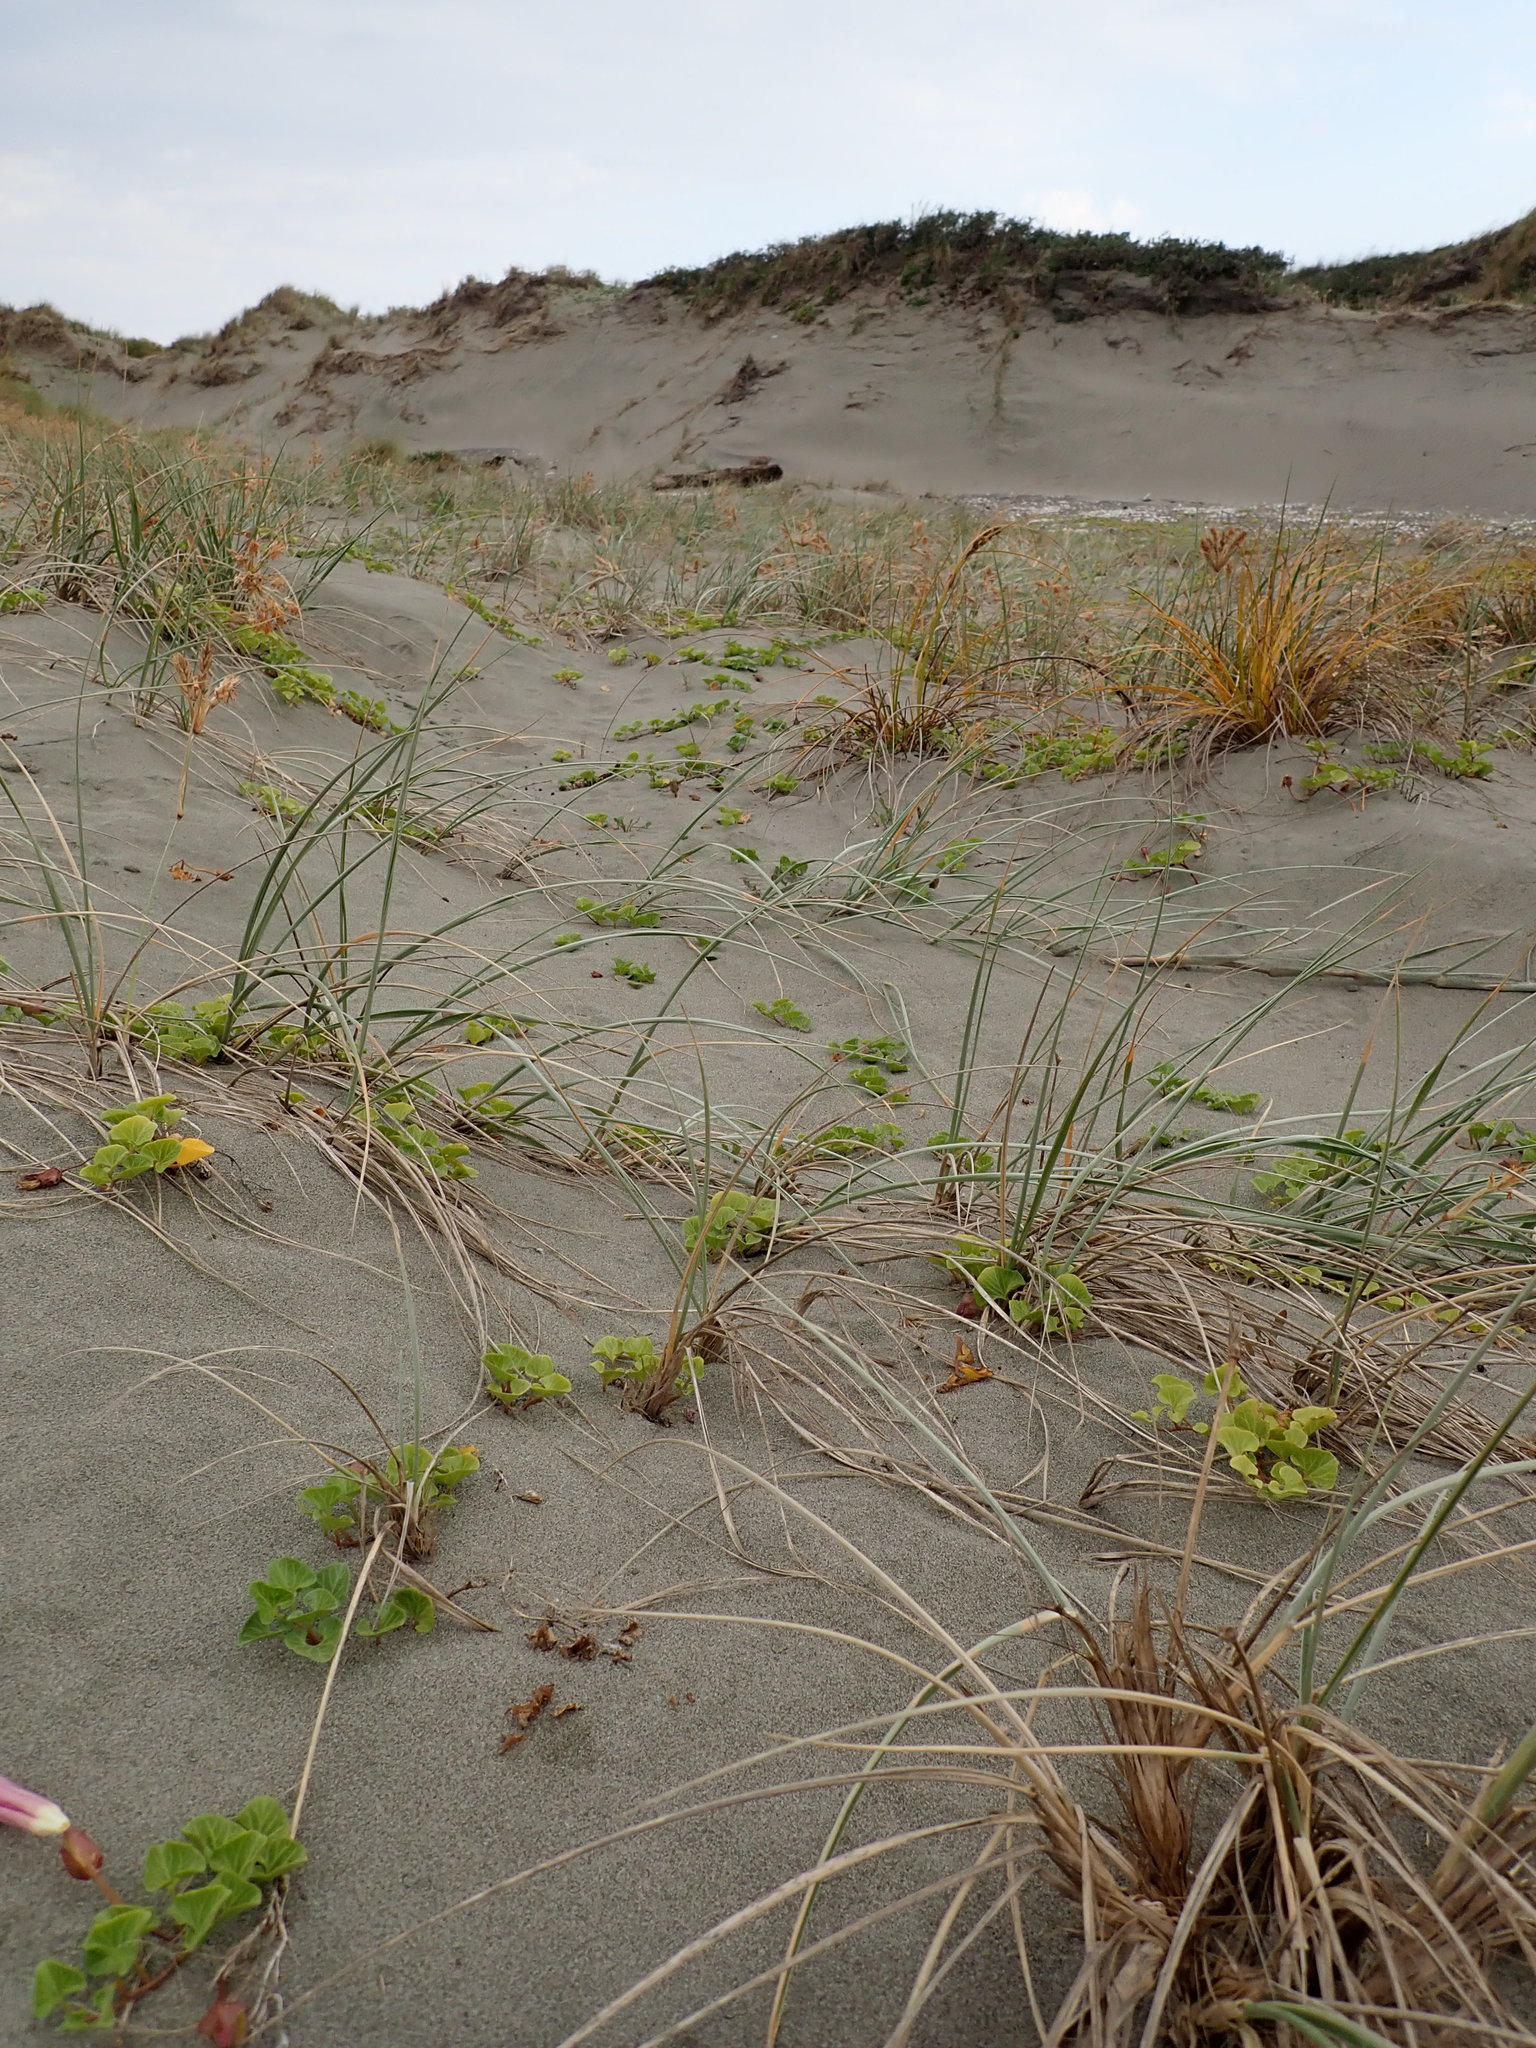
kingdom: Plantae
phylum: Tracheophyta
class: Magnoliopsida
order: Solanales
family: Convolvulaceae
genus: Calystegia
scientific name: Calystegia soldanella
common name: Sea bindweed
